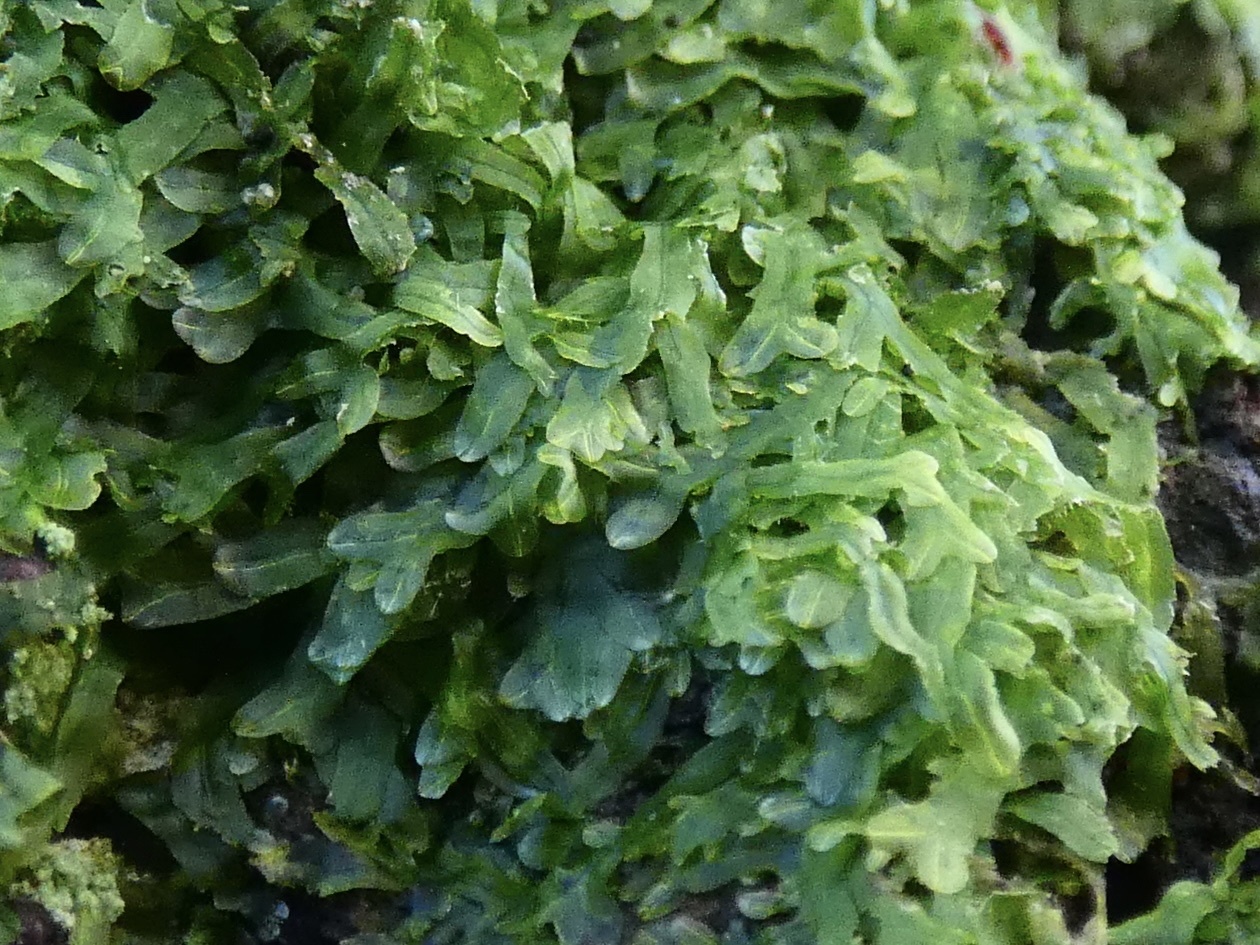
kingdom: Plantae
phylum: Marchantiophyta
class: Jungermanniopsida
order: Metzgeriales
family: Metzgeriaceae
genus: Metzgeria
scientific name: Metzgeria furcata
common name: Forked veilwort
